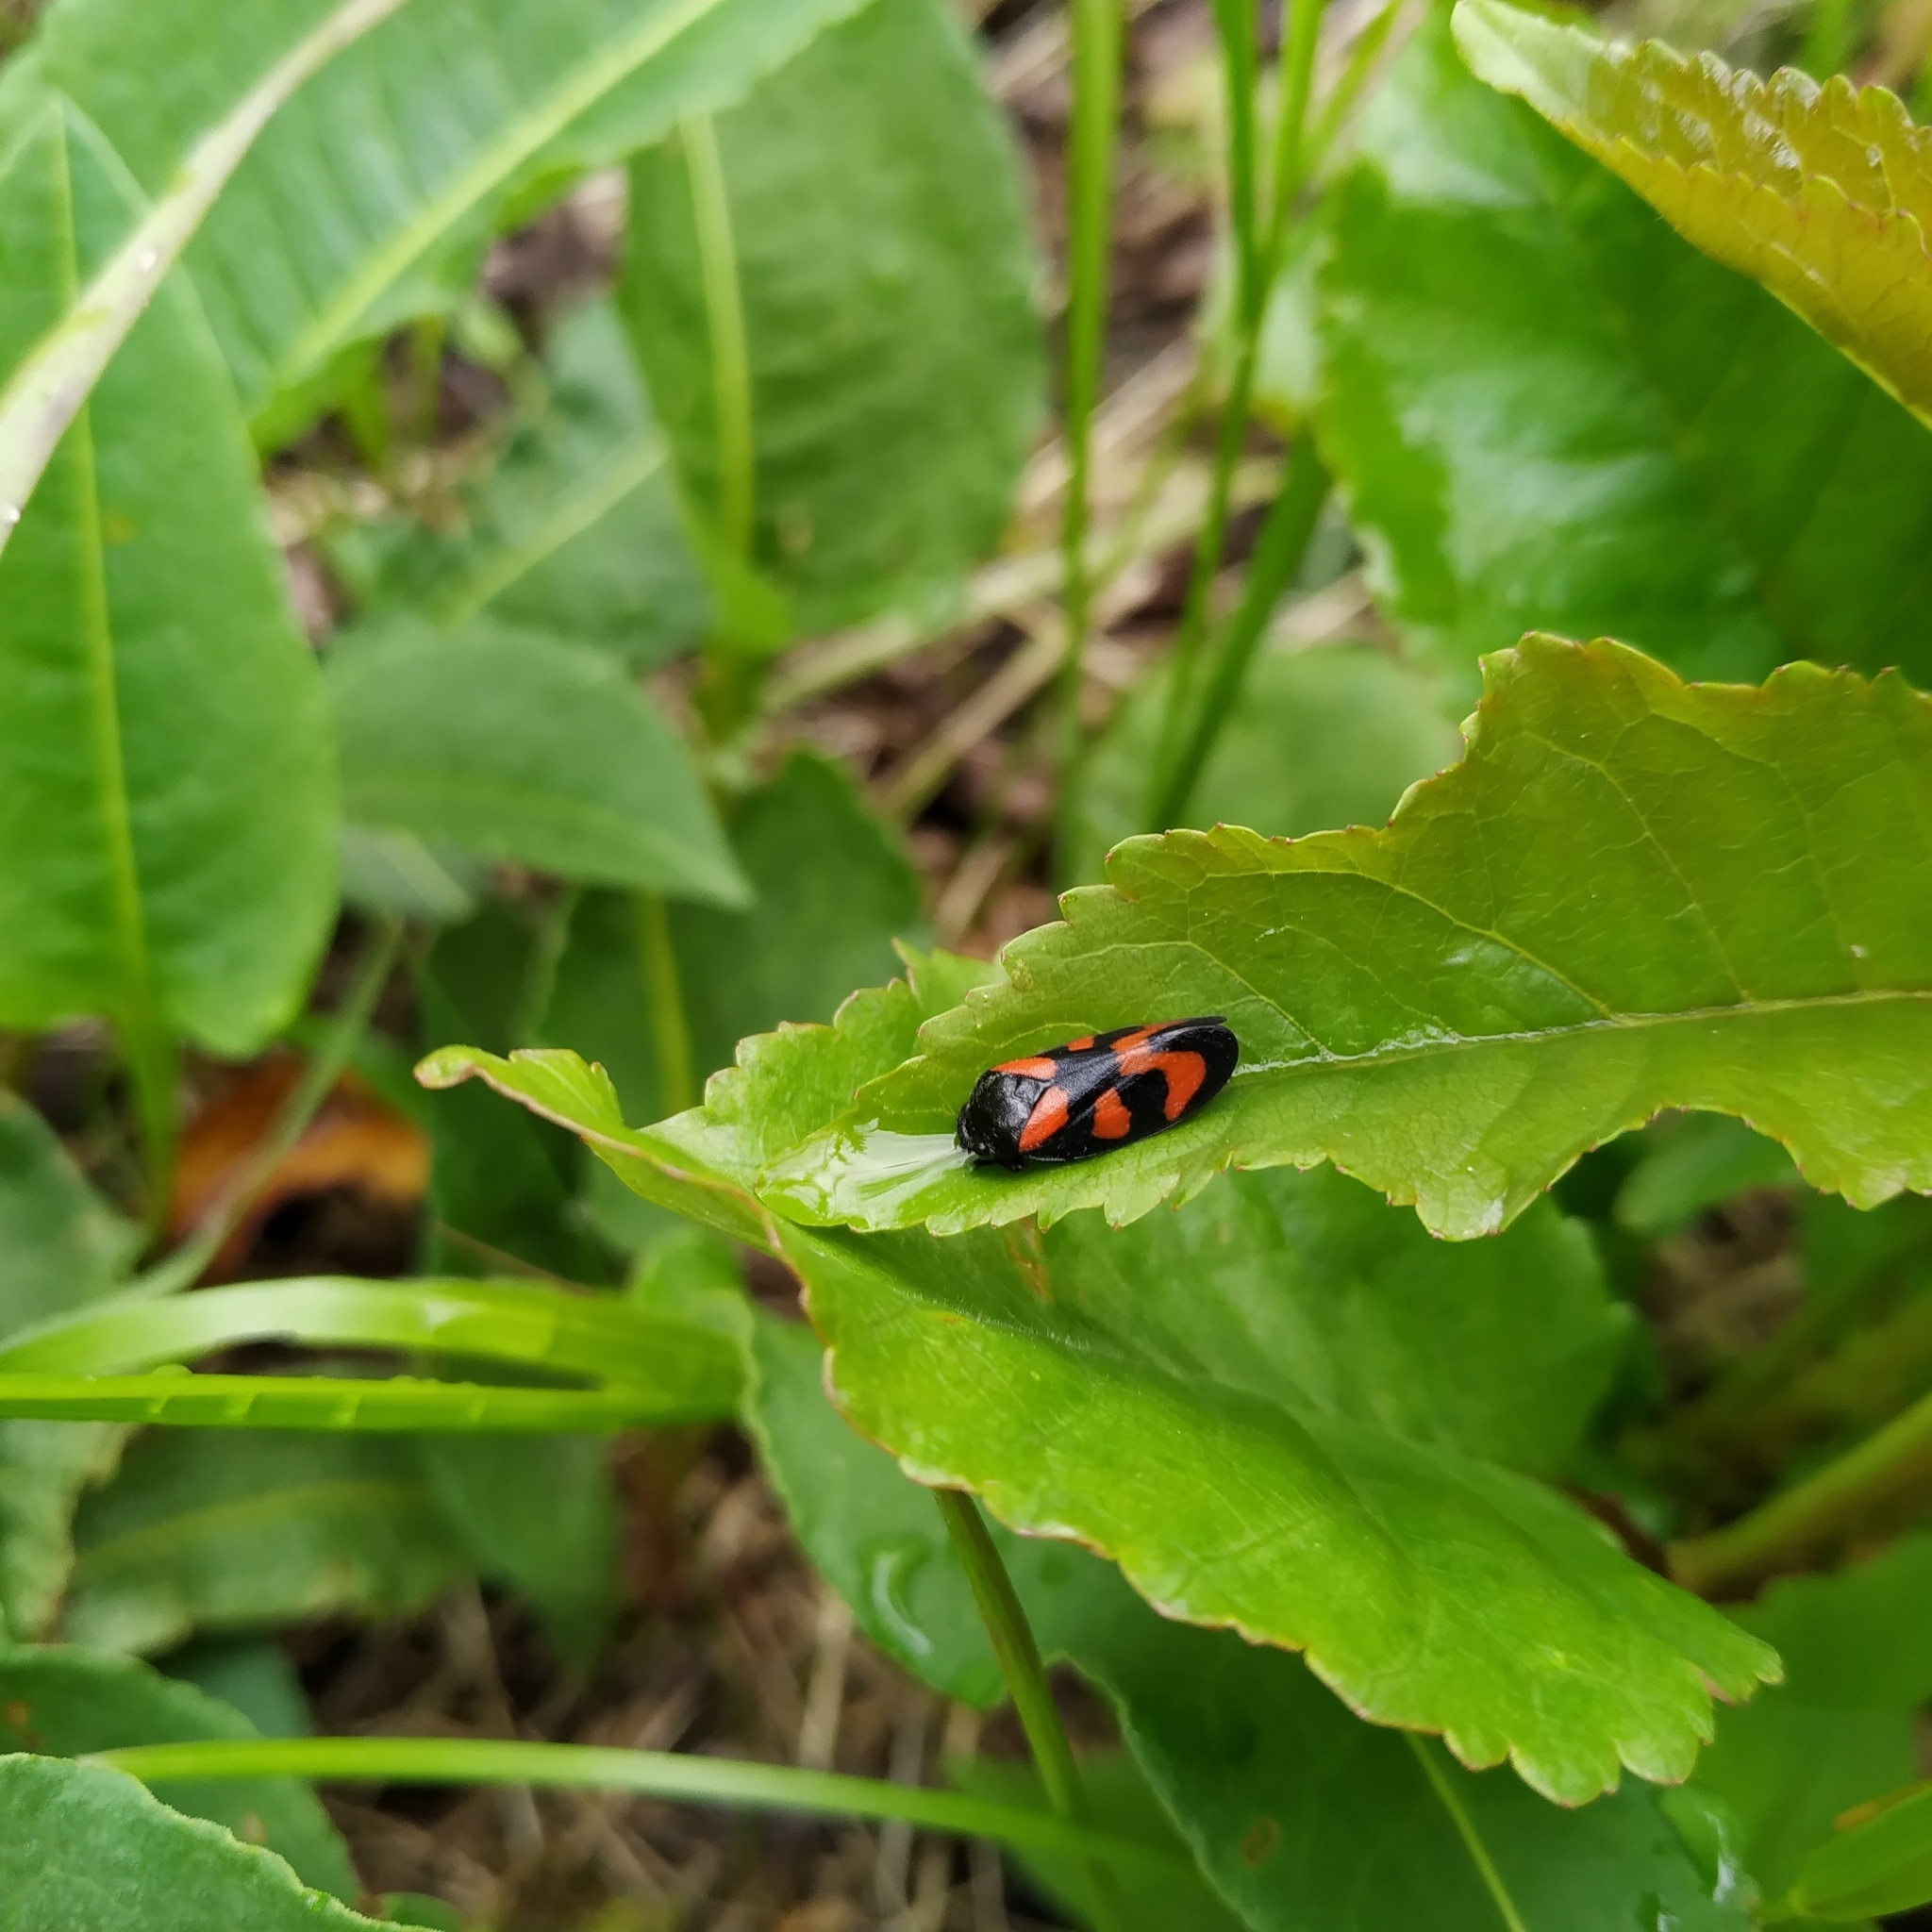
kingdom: Animalia
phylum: Arthropoda
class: Insecta
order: Hemiptera
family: Cercopidae
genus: Cercopis
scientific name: Cercopis vulnerata
